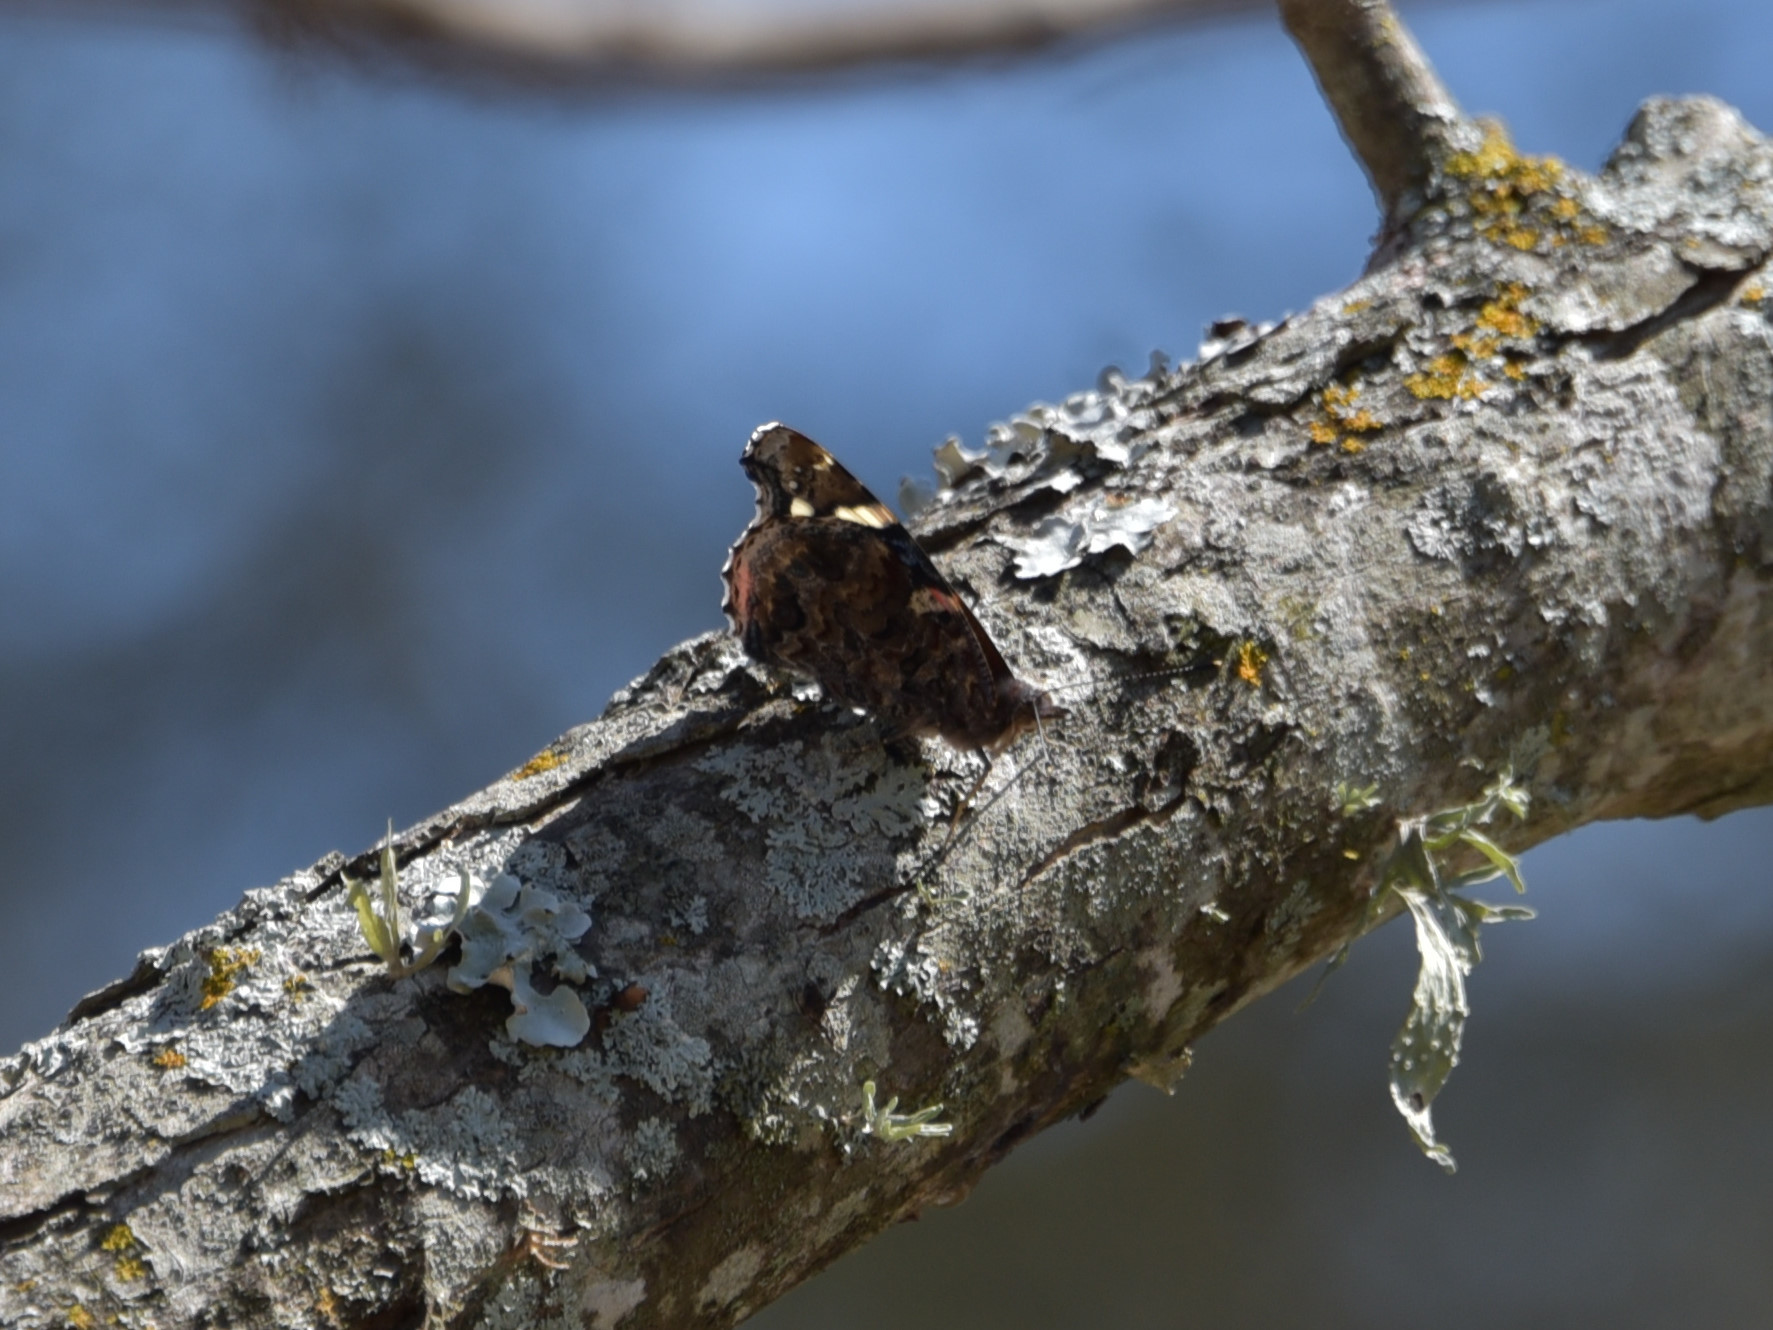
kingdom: Animalia
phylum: Arthropoda
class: Insecta
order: Lepidoptera
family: Nymphalidae
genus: Vanessa
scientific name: Vanessa atalanta
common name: Red admiral
